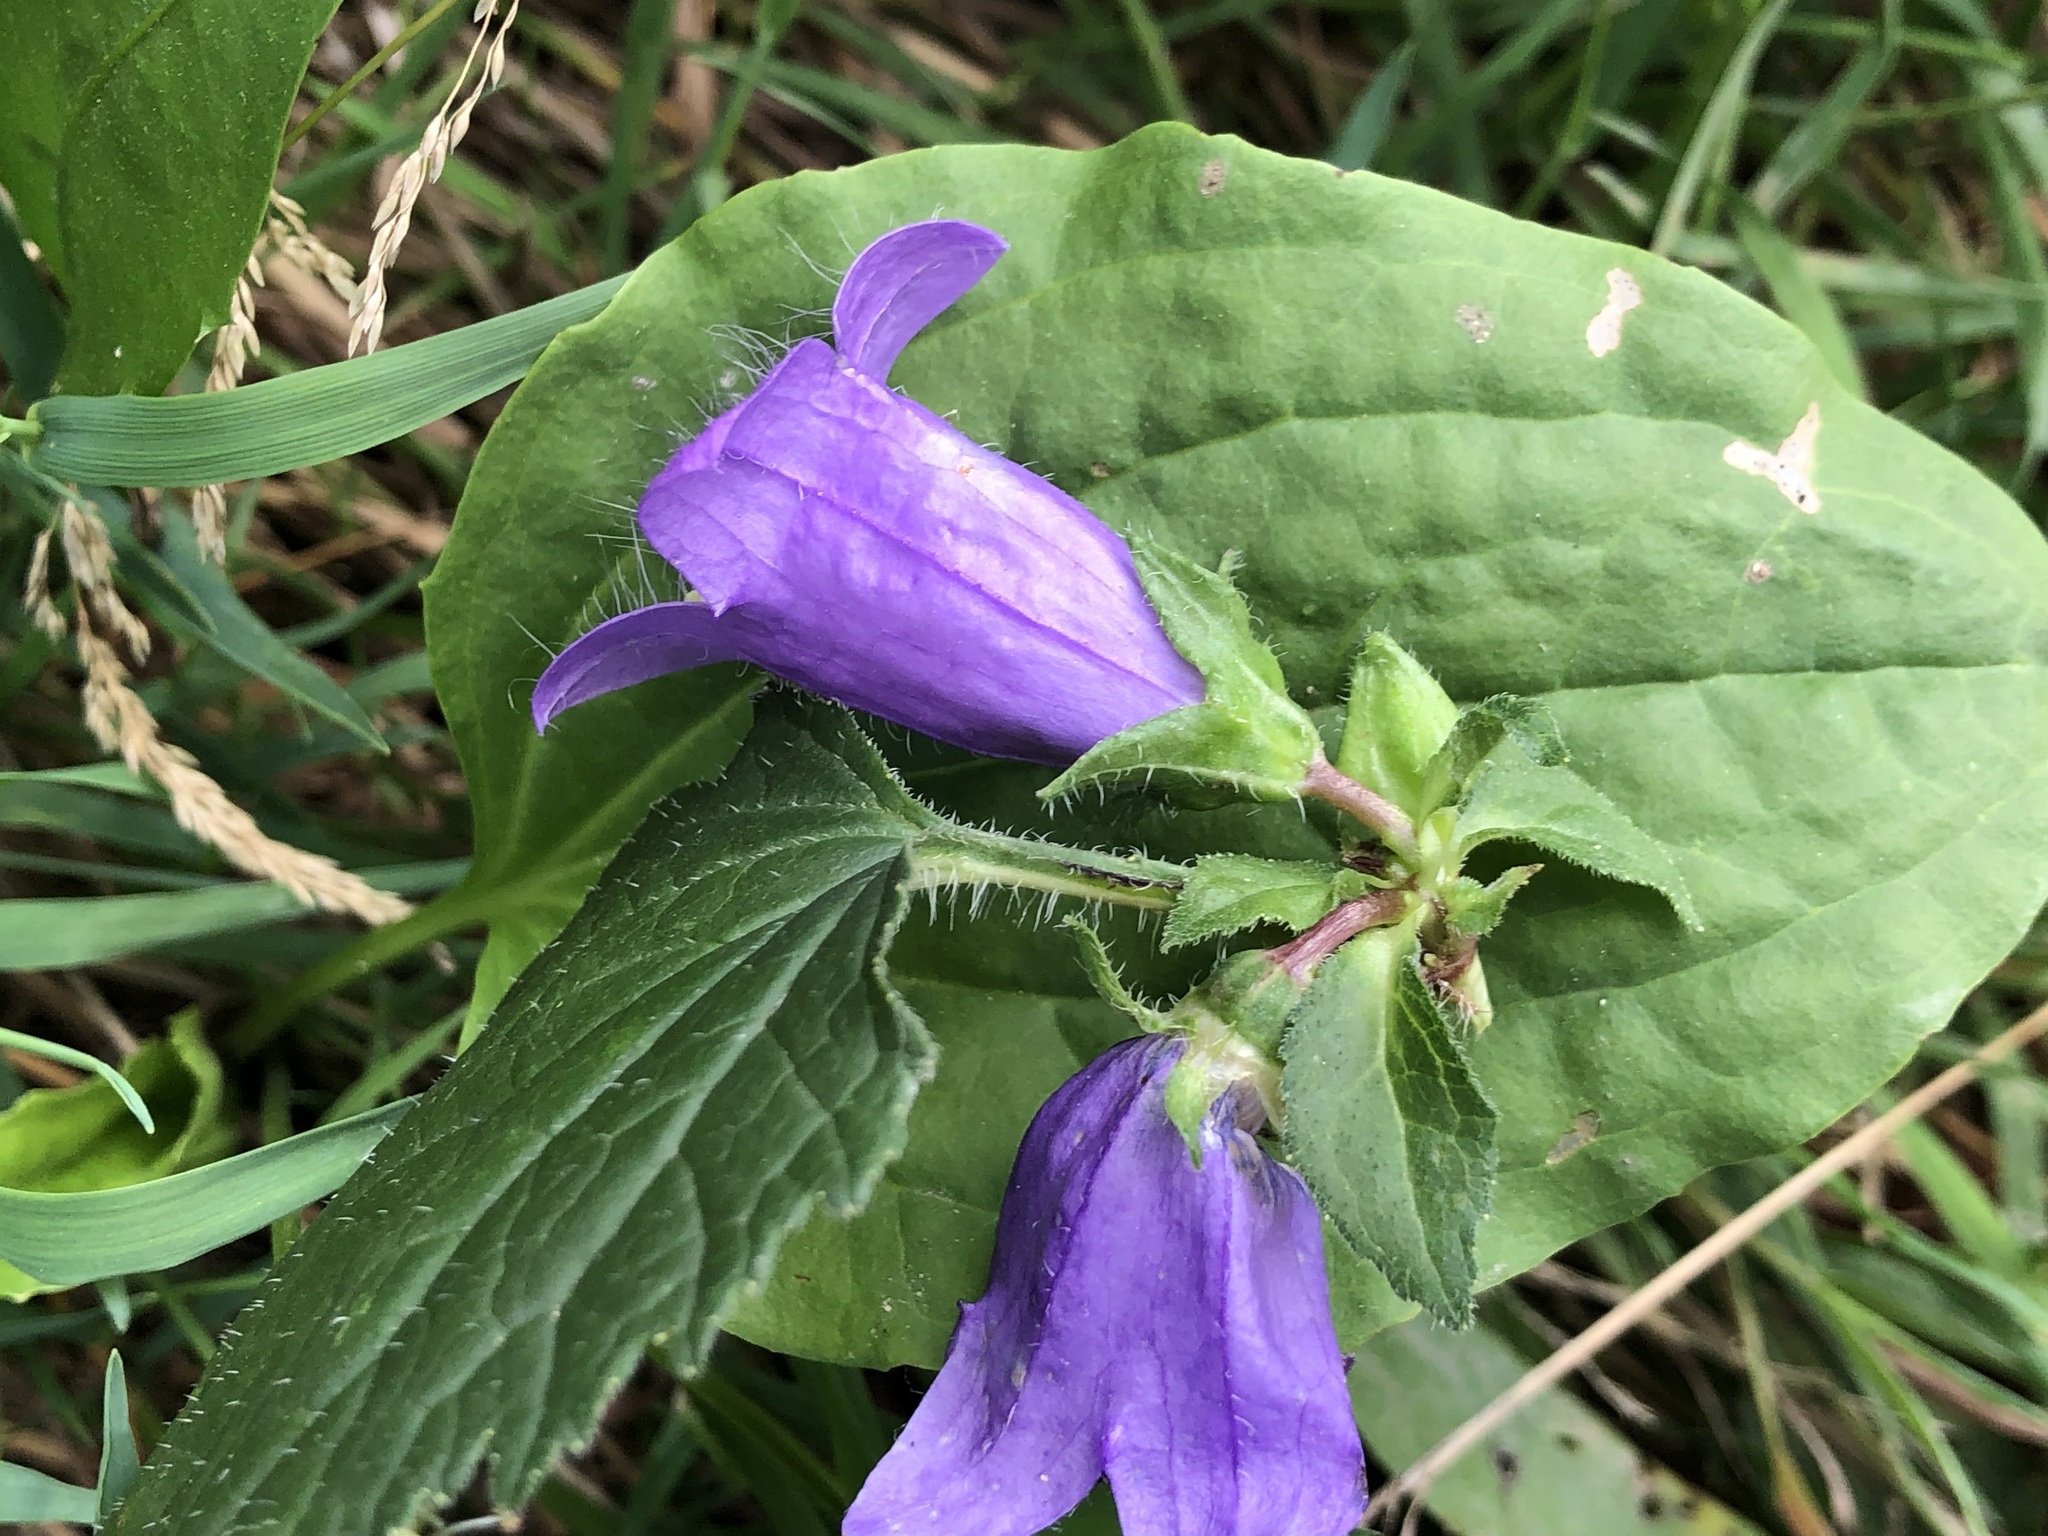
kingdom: Plantae
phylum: Tracheophyta
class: Magnoliopsida
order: Asterales
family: Campanulaceae
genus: Campanula
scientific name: Campanula trachelium
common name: Nettle-leaved bellflower
